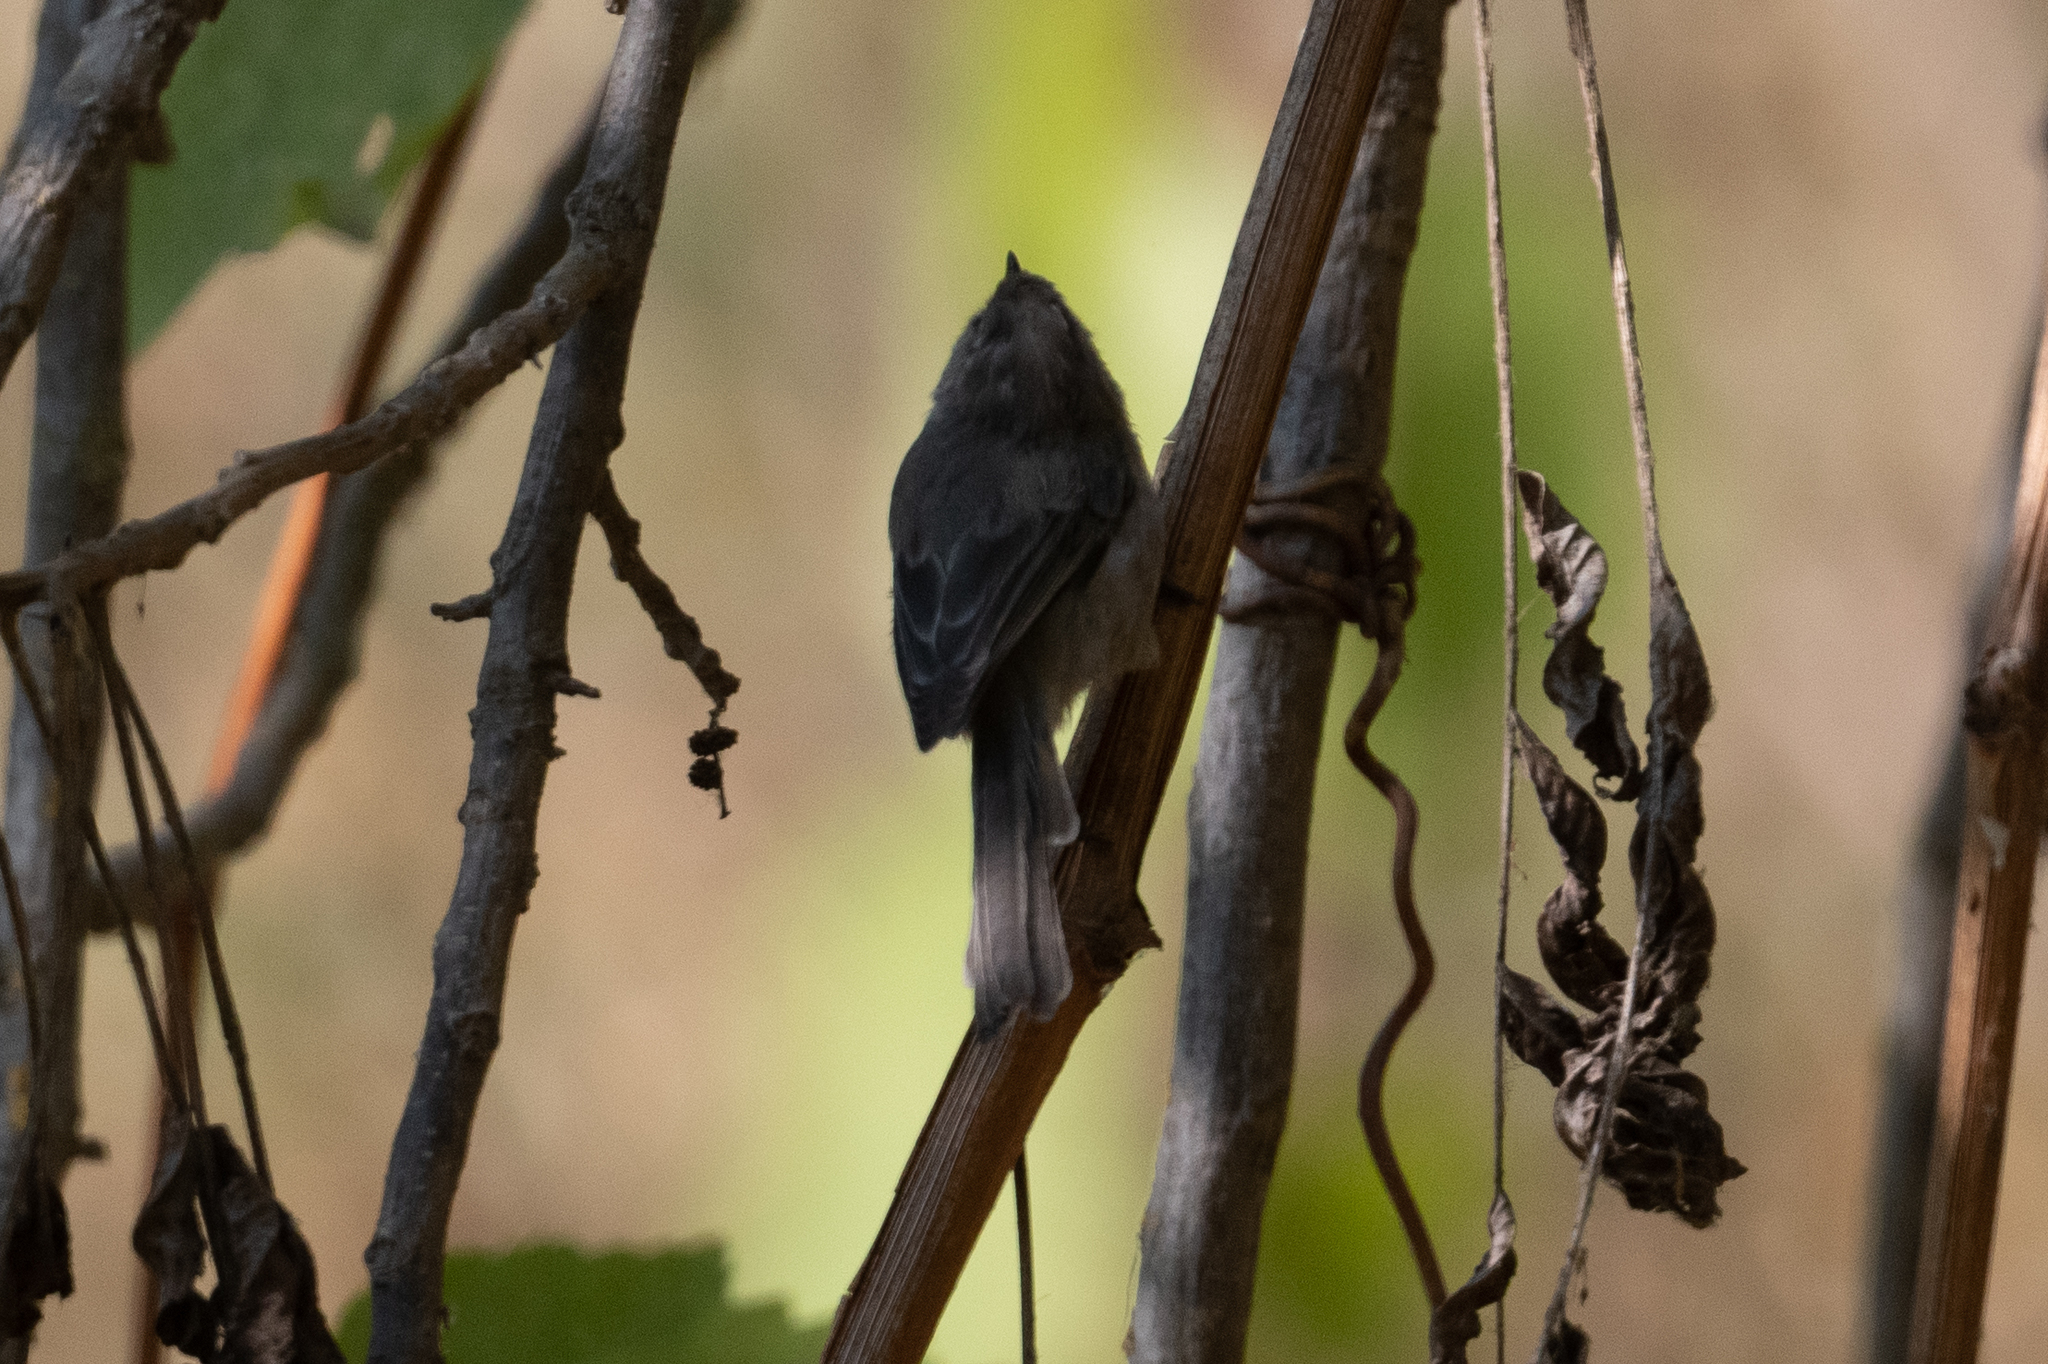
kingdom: Animalia
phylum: Chordata
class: Aves
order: Passeriformes
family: Aegithalidae
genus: Psaltriparus
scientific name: Psaltriparus minimus
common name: American bushtit
